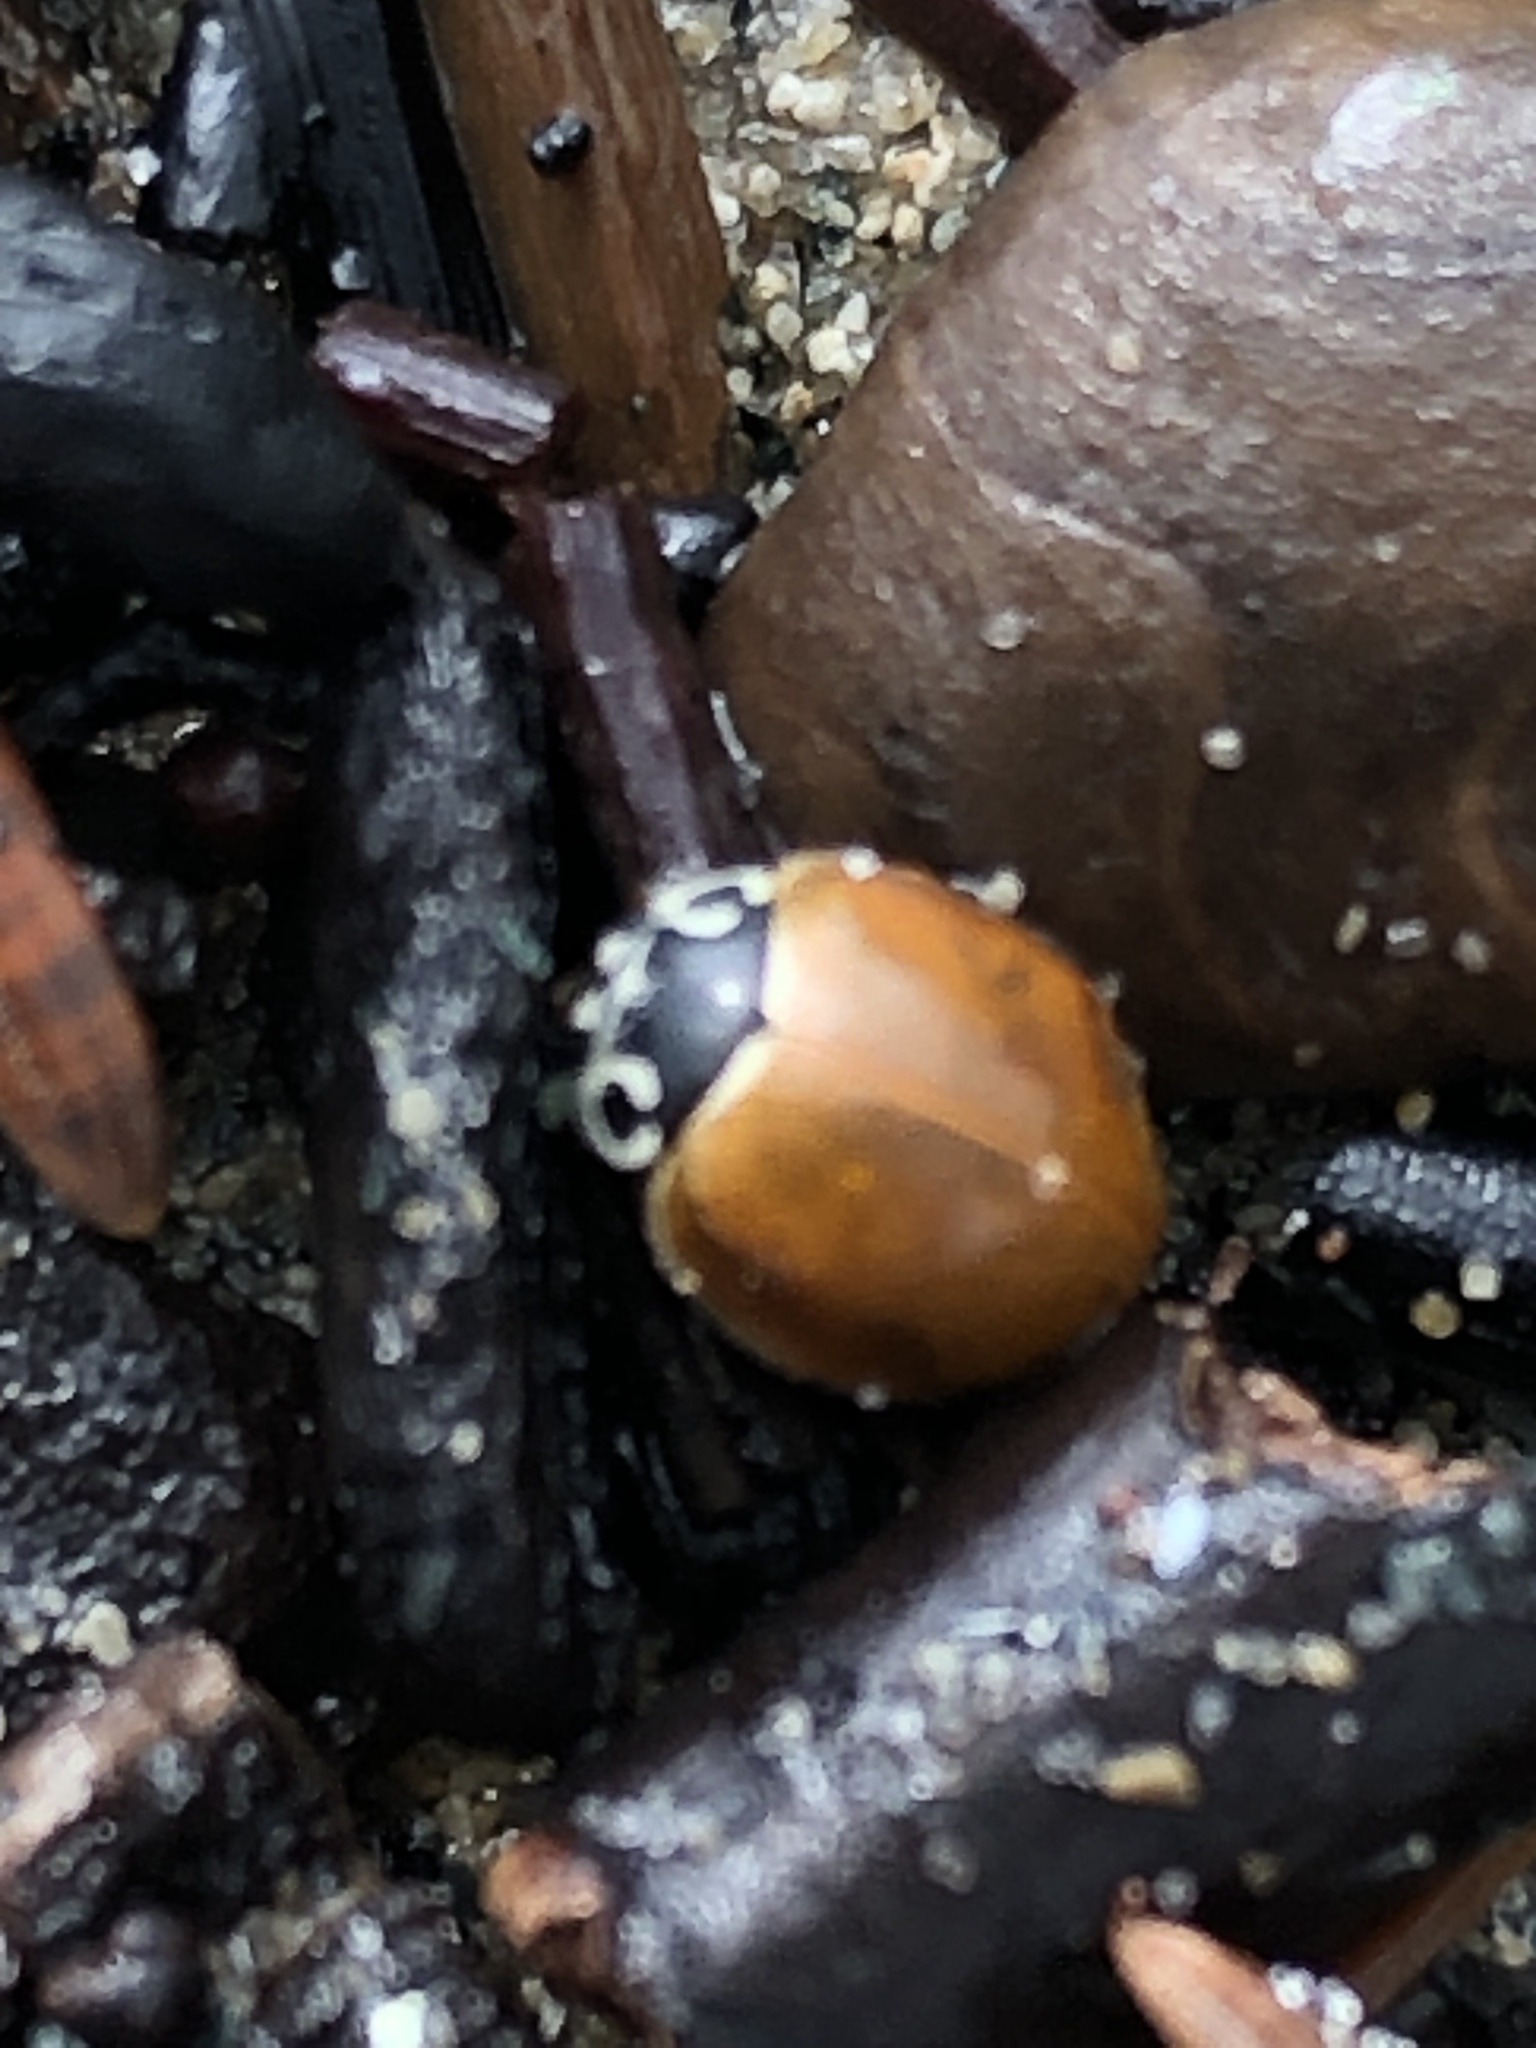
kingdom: Animalia
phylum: Arthropoda
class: Insecta
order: Coleoptera
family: Coccinellidae
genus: Cycloneda
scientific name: Cycloneda munda
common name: Polished lady beetle
